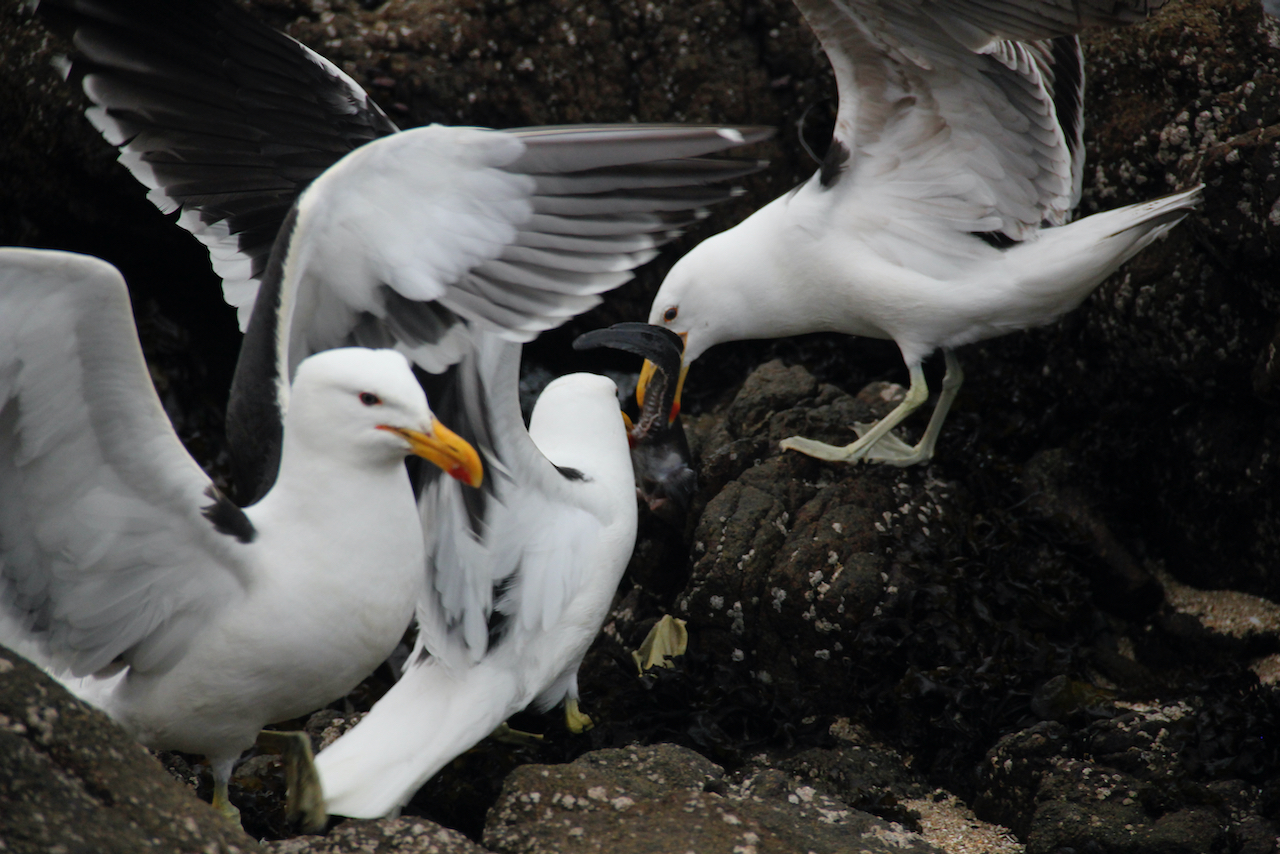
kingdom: Animalia
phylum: Chordata
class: Aves
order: Charadriiformes
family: Laridae
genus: Larus
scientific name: Larus dominicanus
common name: Kelp gull
